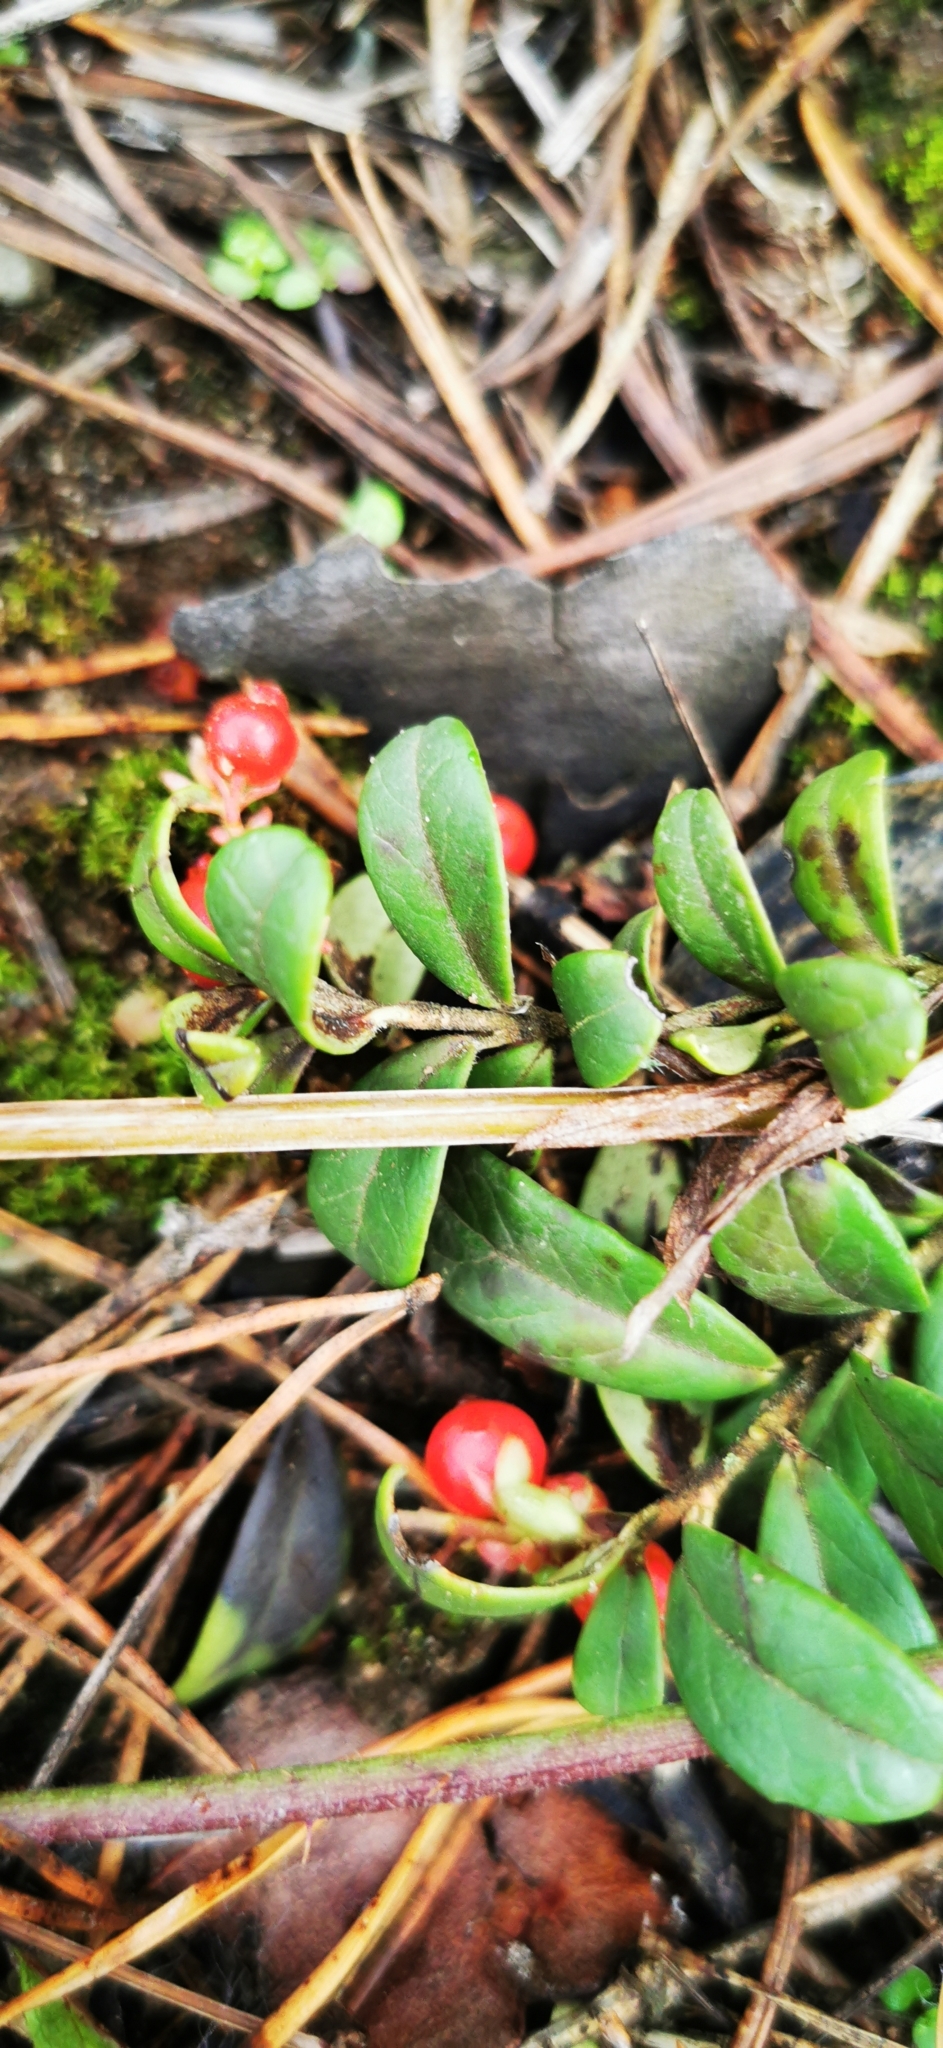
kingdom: Plantae
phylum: Tracheophyta
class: Magnoliopsida
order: Ericales
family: Ericaceae
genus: Vaccinium
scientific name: Vaccinium vitis-idaea
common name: Cowberry
